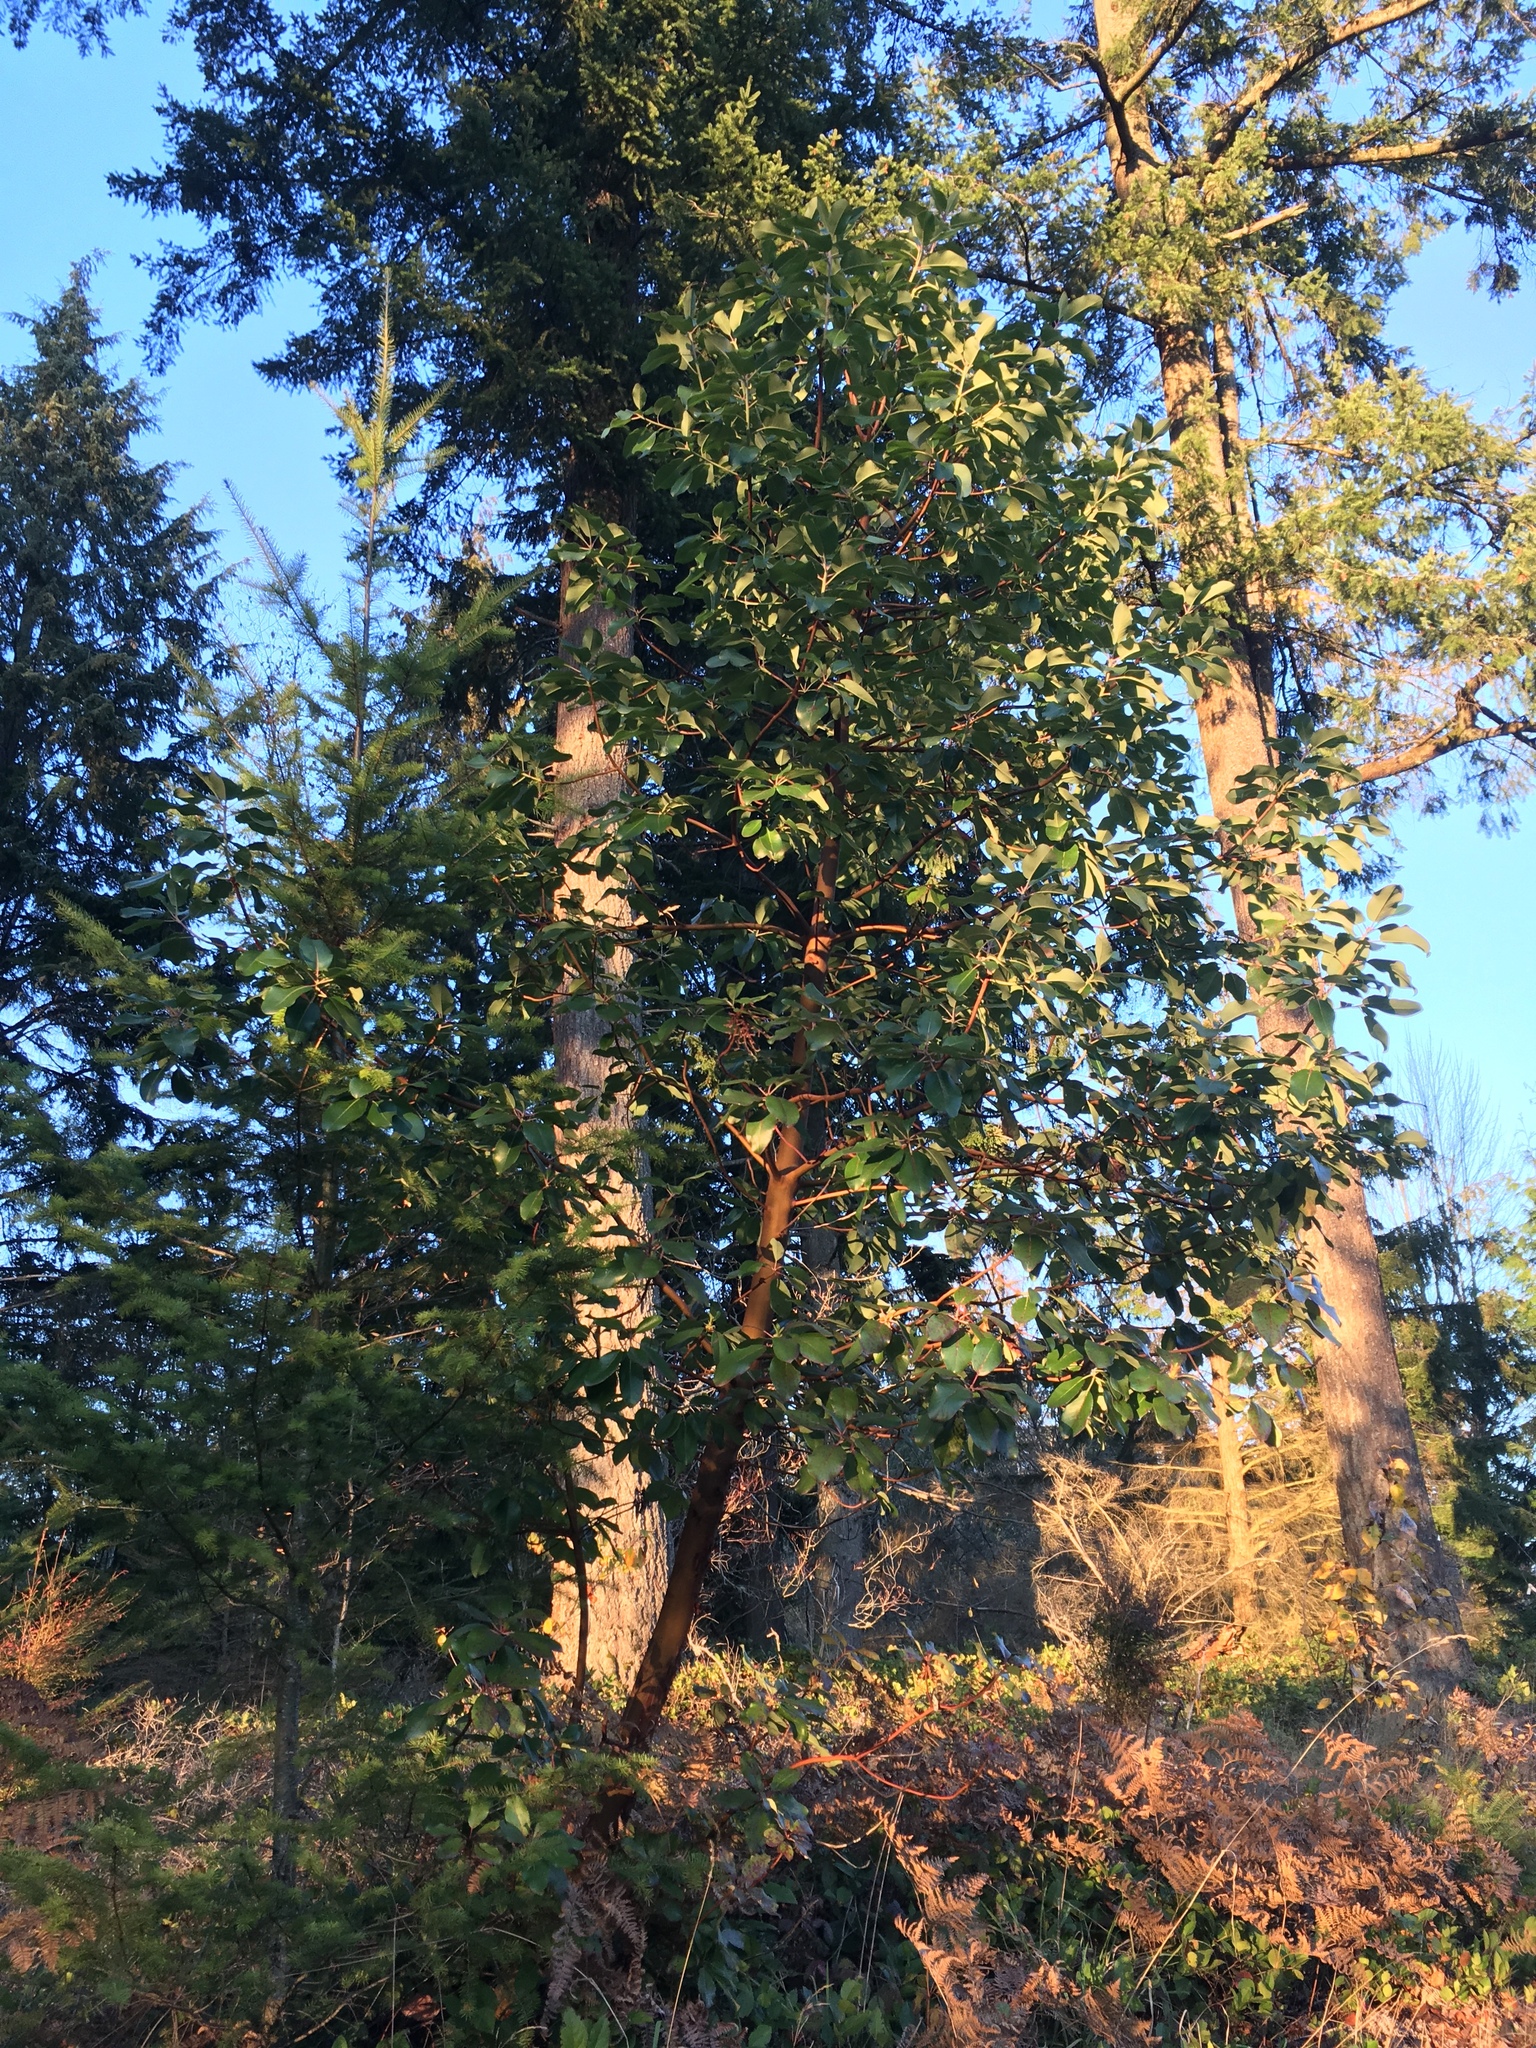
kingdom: Plantae
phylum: Tracheophyta
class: Magnoliopsida
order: Ericales
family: Ericaceae
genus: Arbutus
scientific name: Arbutus menziesii
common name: Pacific madrone
